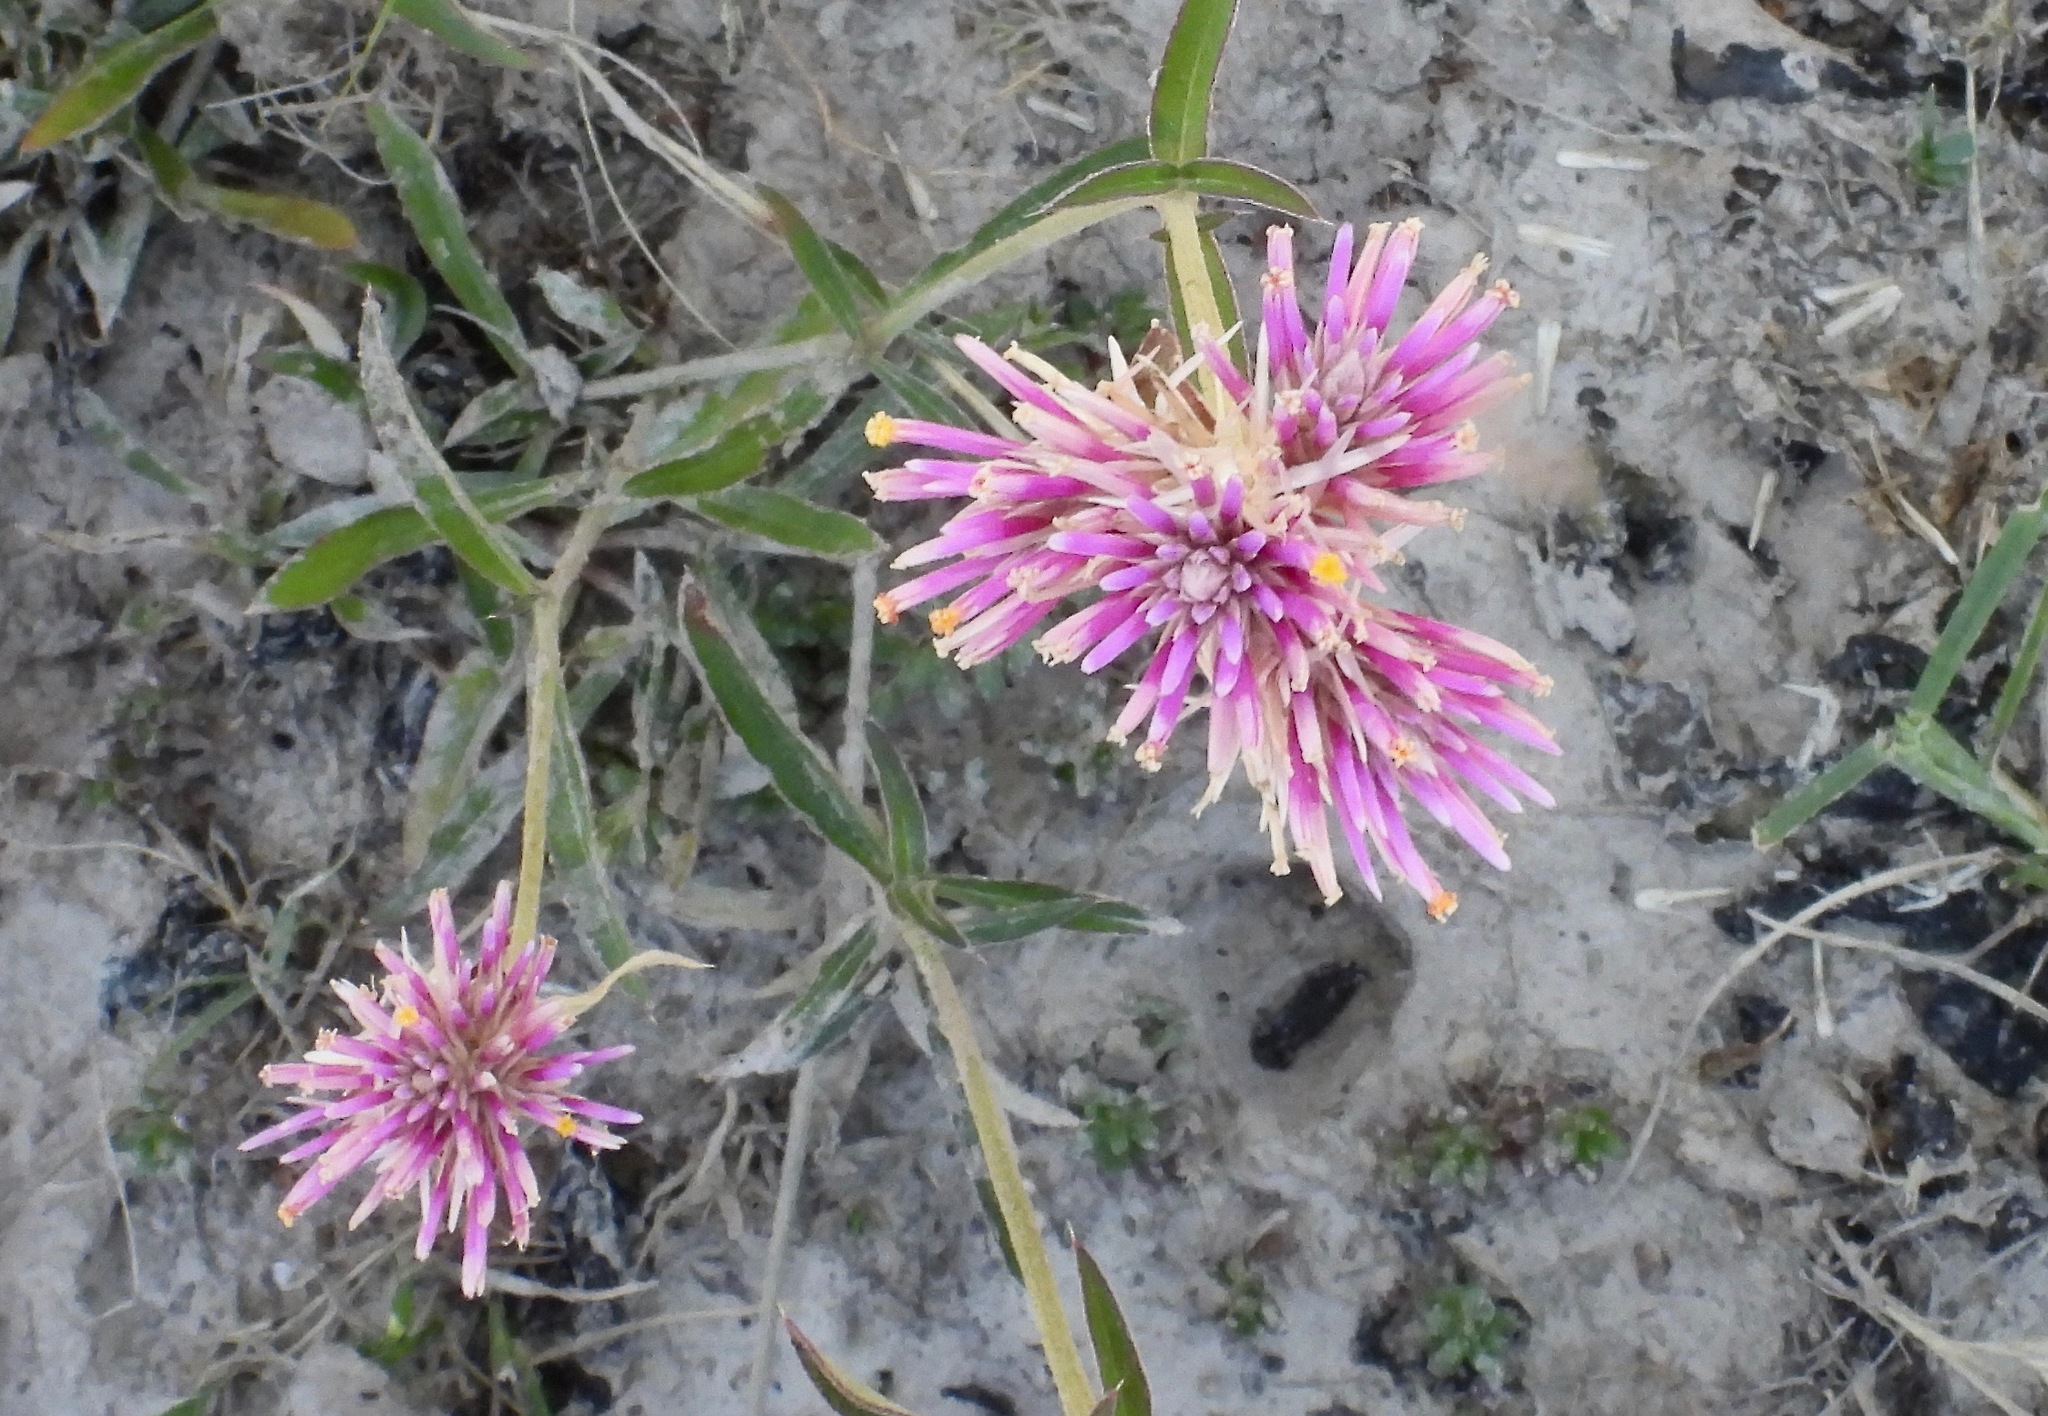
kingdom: Plantae
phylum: Tracheophyta
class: Magnoliopsida
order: Caryophyllales
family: Amaranthaceae
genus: Gomphrena
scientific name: Gomphrena pulchella
